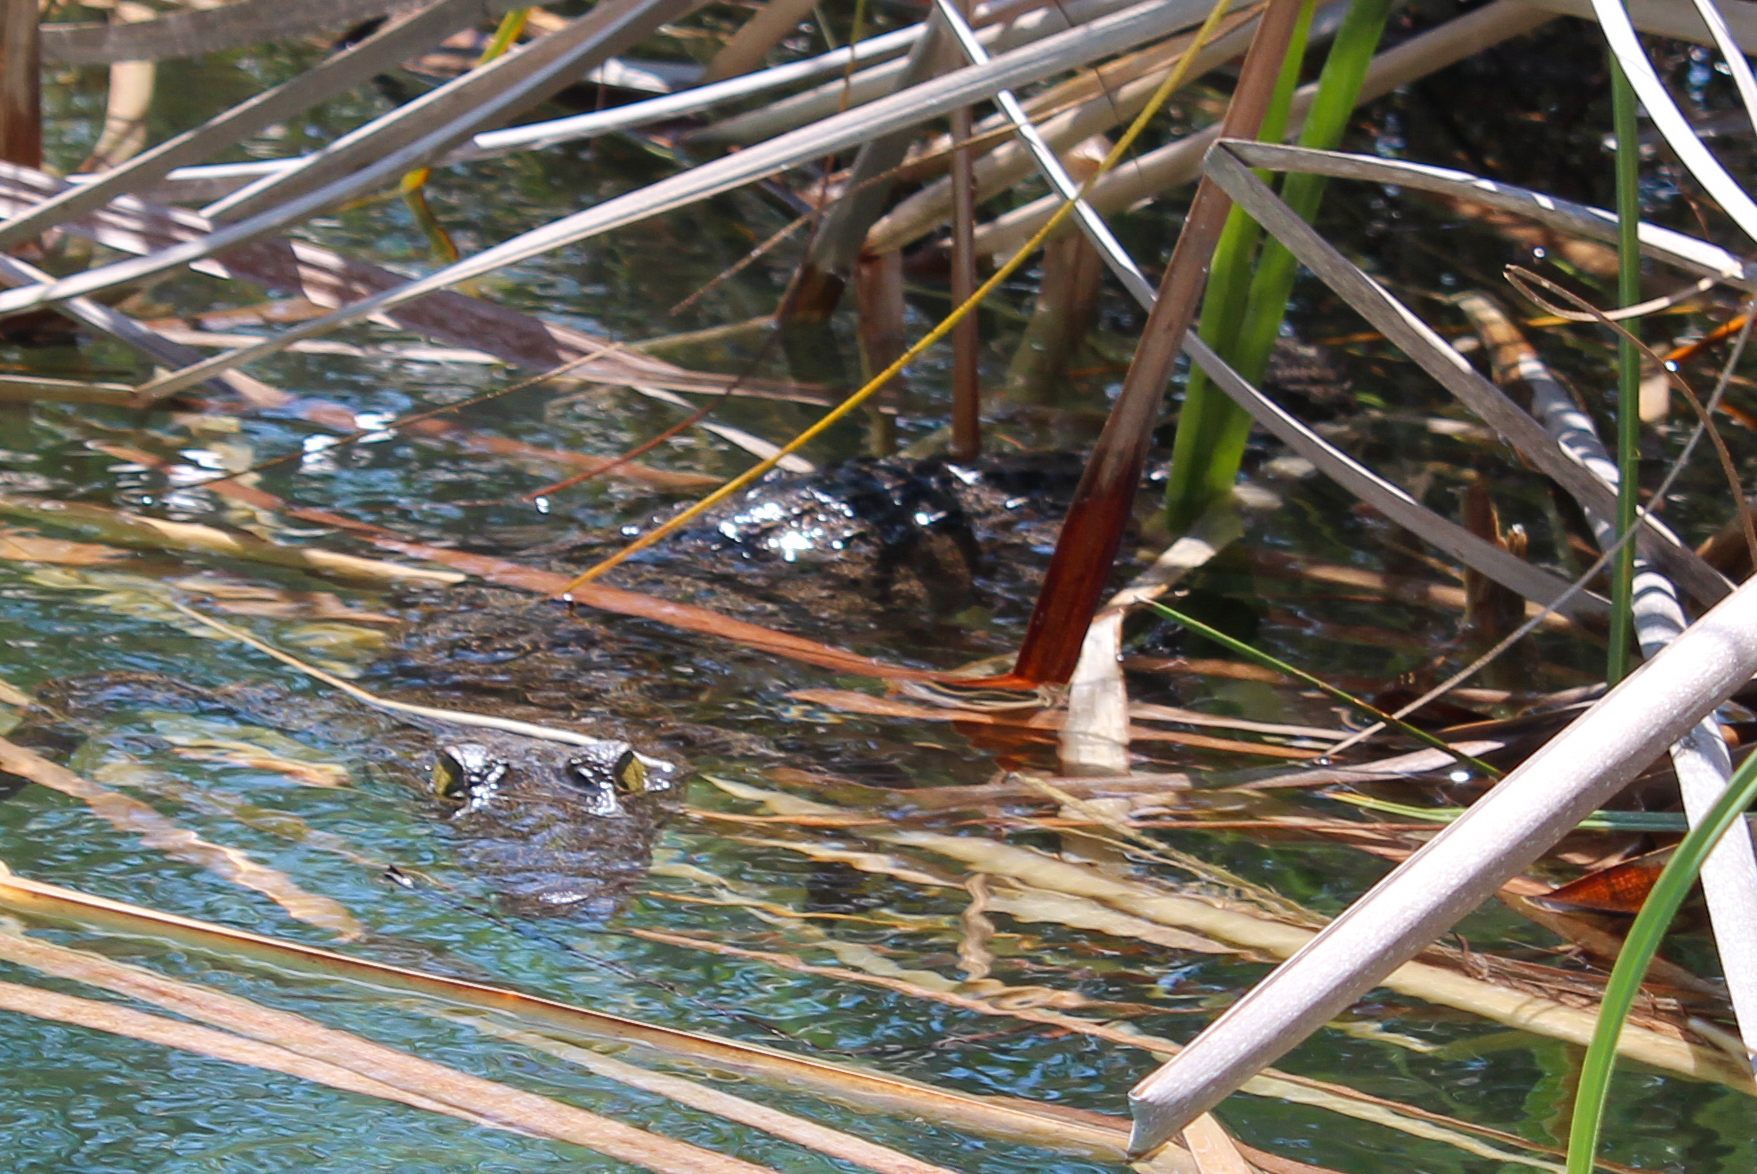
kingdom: Animalia
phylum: Chordata
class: Crocodylia
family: Crocodylidae
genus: Crocodylus
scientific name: Crocodylus moreletii
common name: Morelet's crocodile
